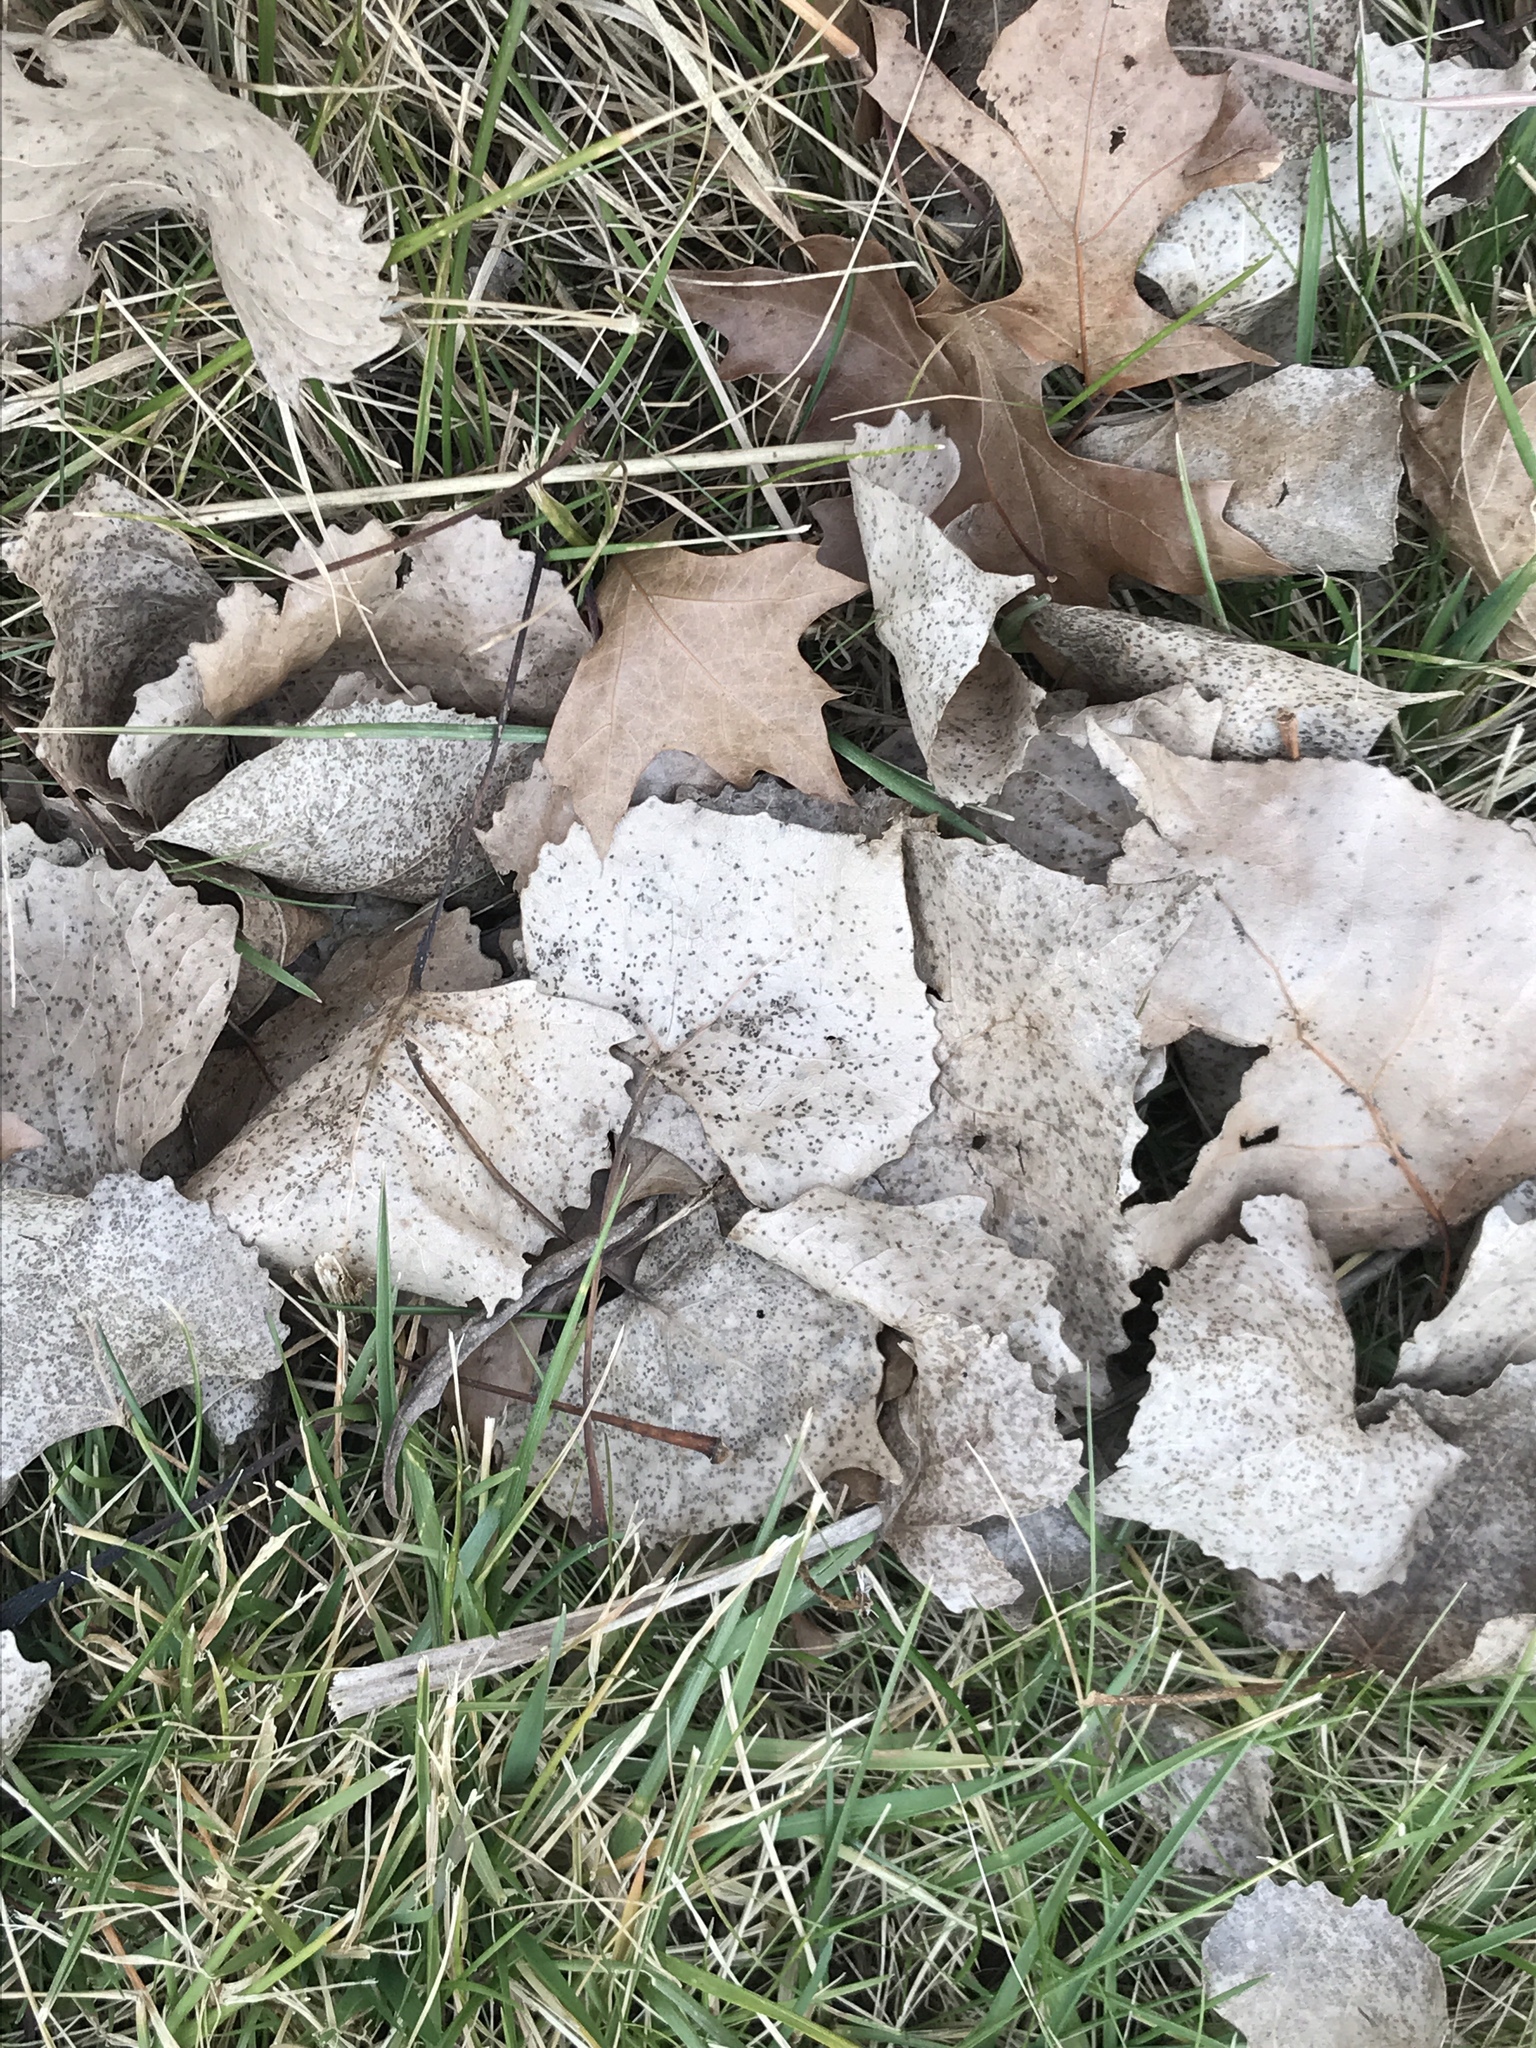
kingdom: Plantae
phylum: Tracheophyta
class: Magnoliopsida
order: Malpighiales
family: Salicaceae
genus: Populus
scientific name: Populus deltoides
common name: Eastern cottonwood
